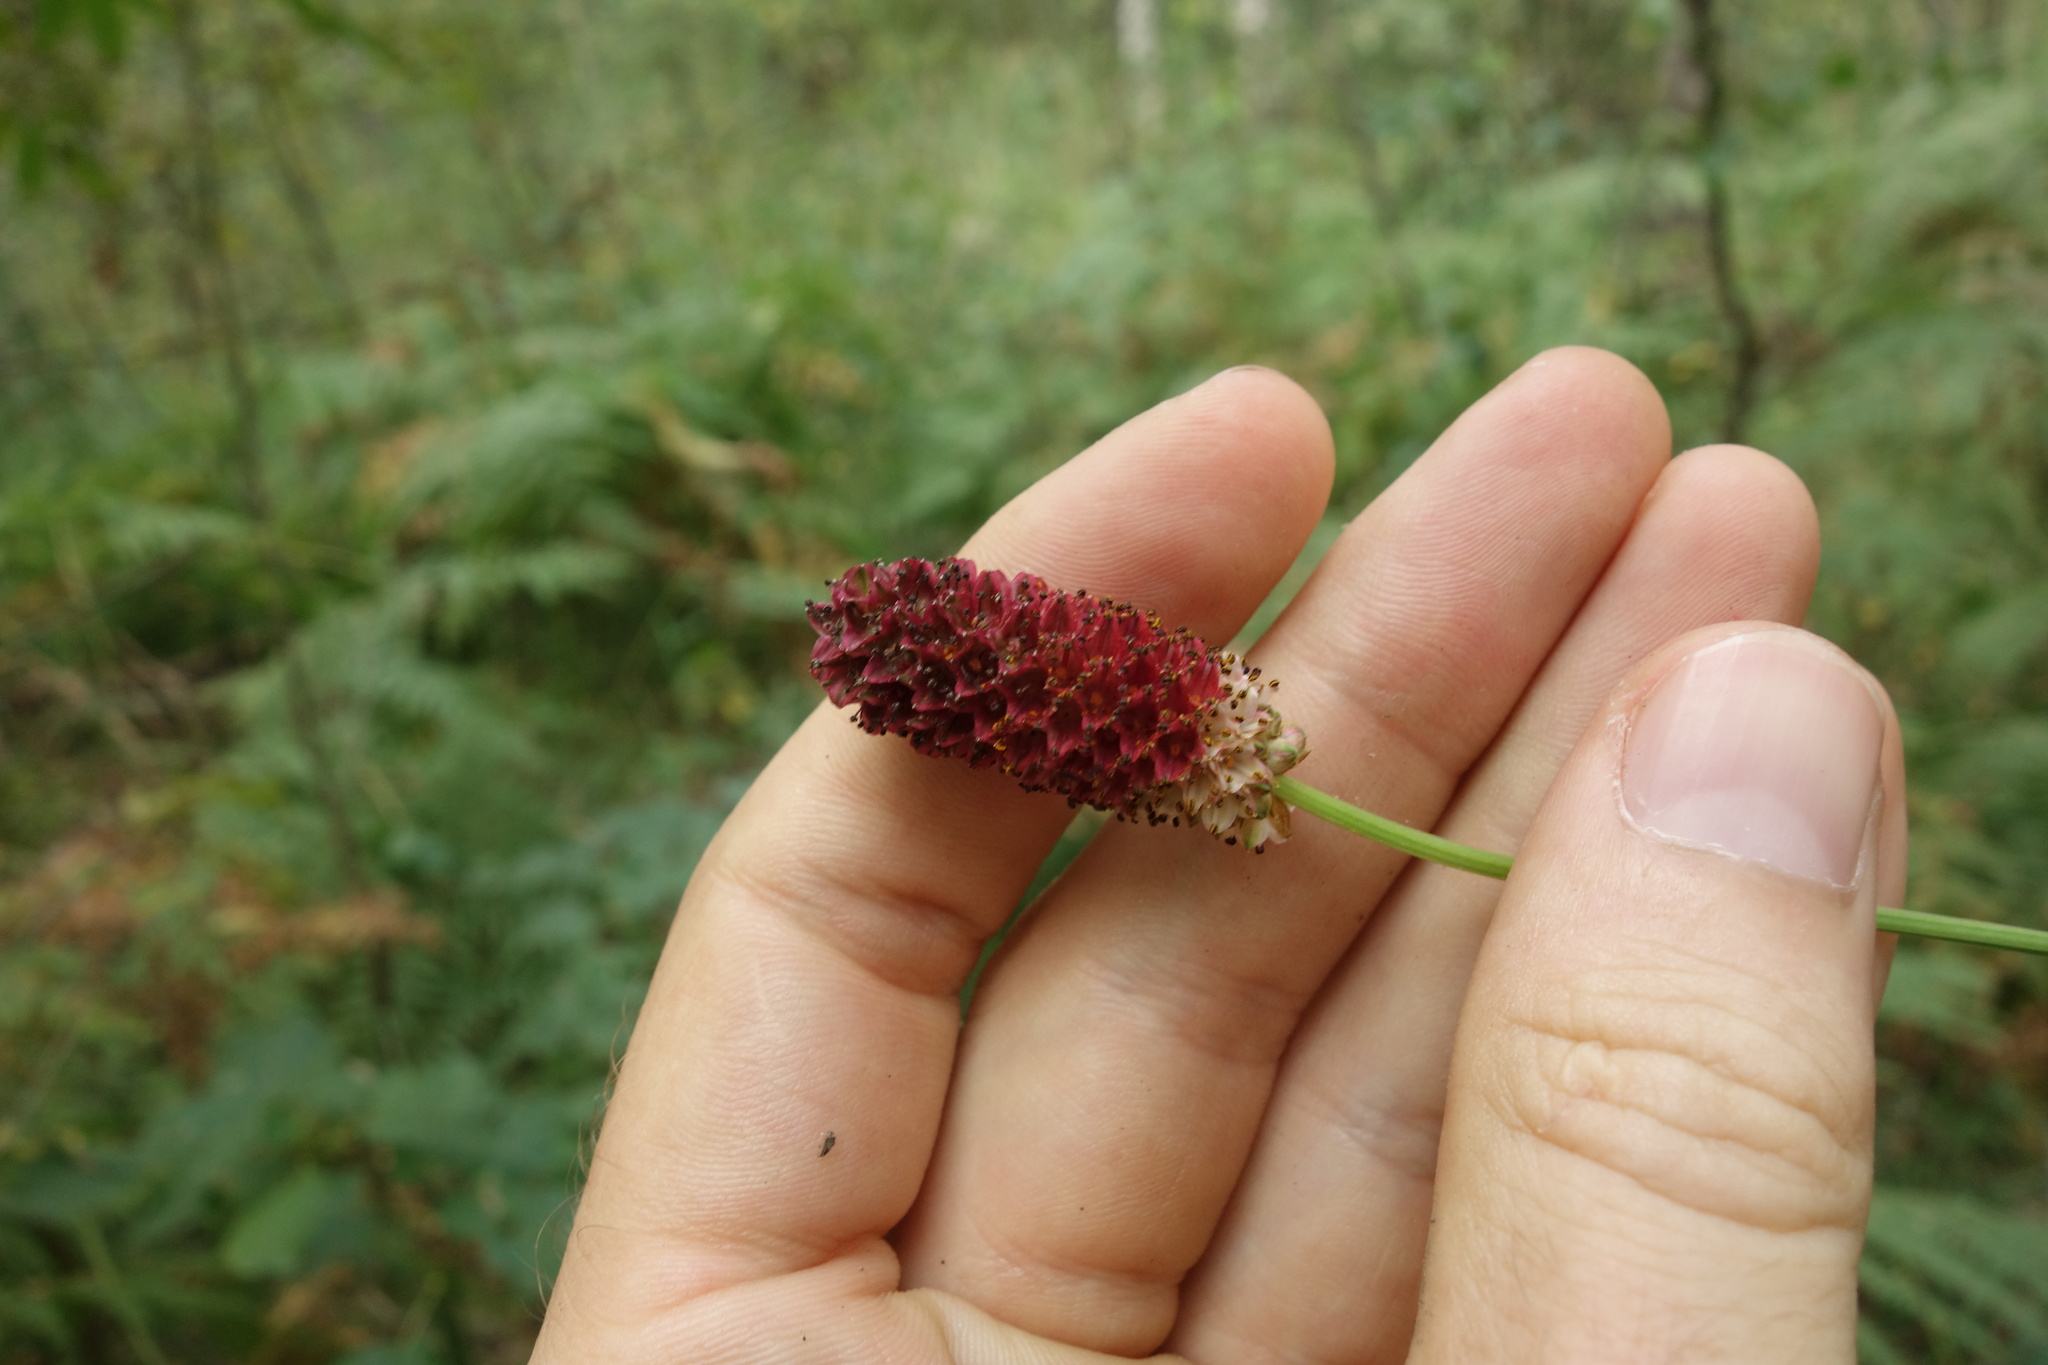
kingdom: Plantae
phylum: Tracheophyta
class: Magnoliopsida
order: Rosales
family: Rosaceae
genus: Sanguisorba
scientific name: Sanguisorba officinalis
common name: Great burnet
